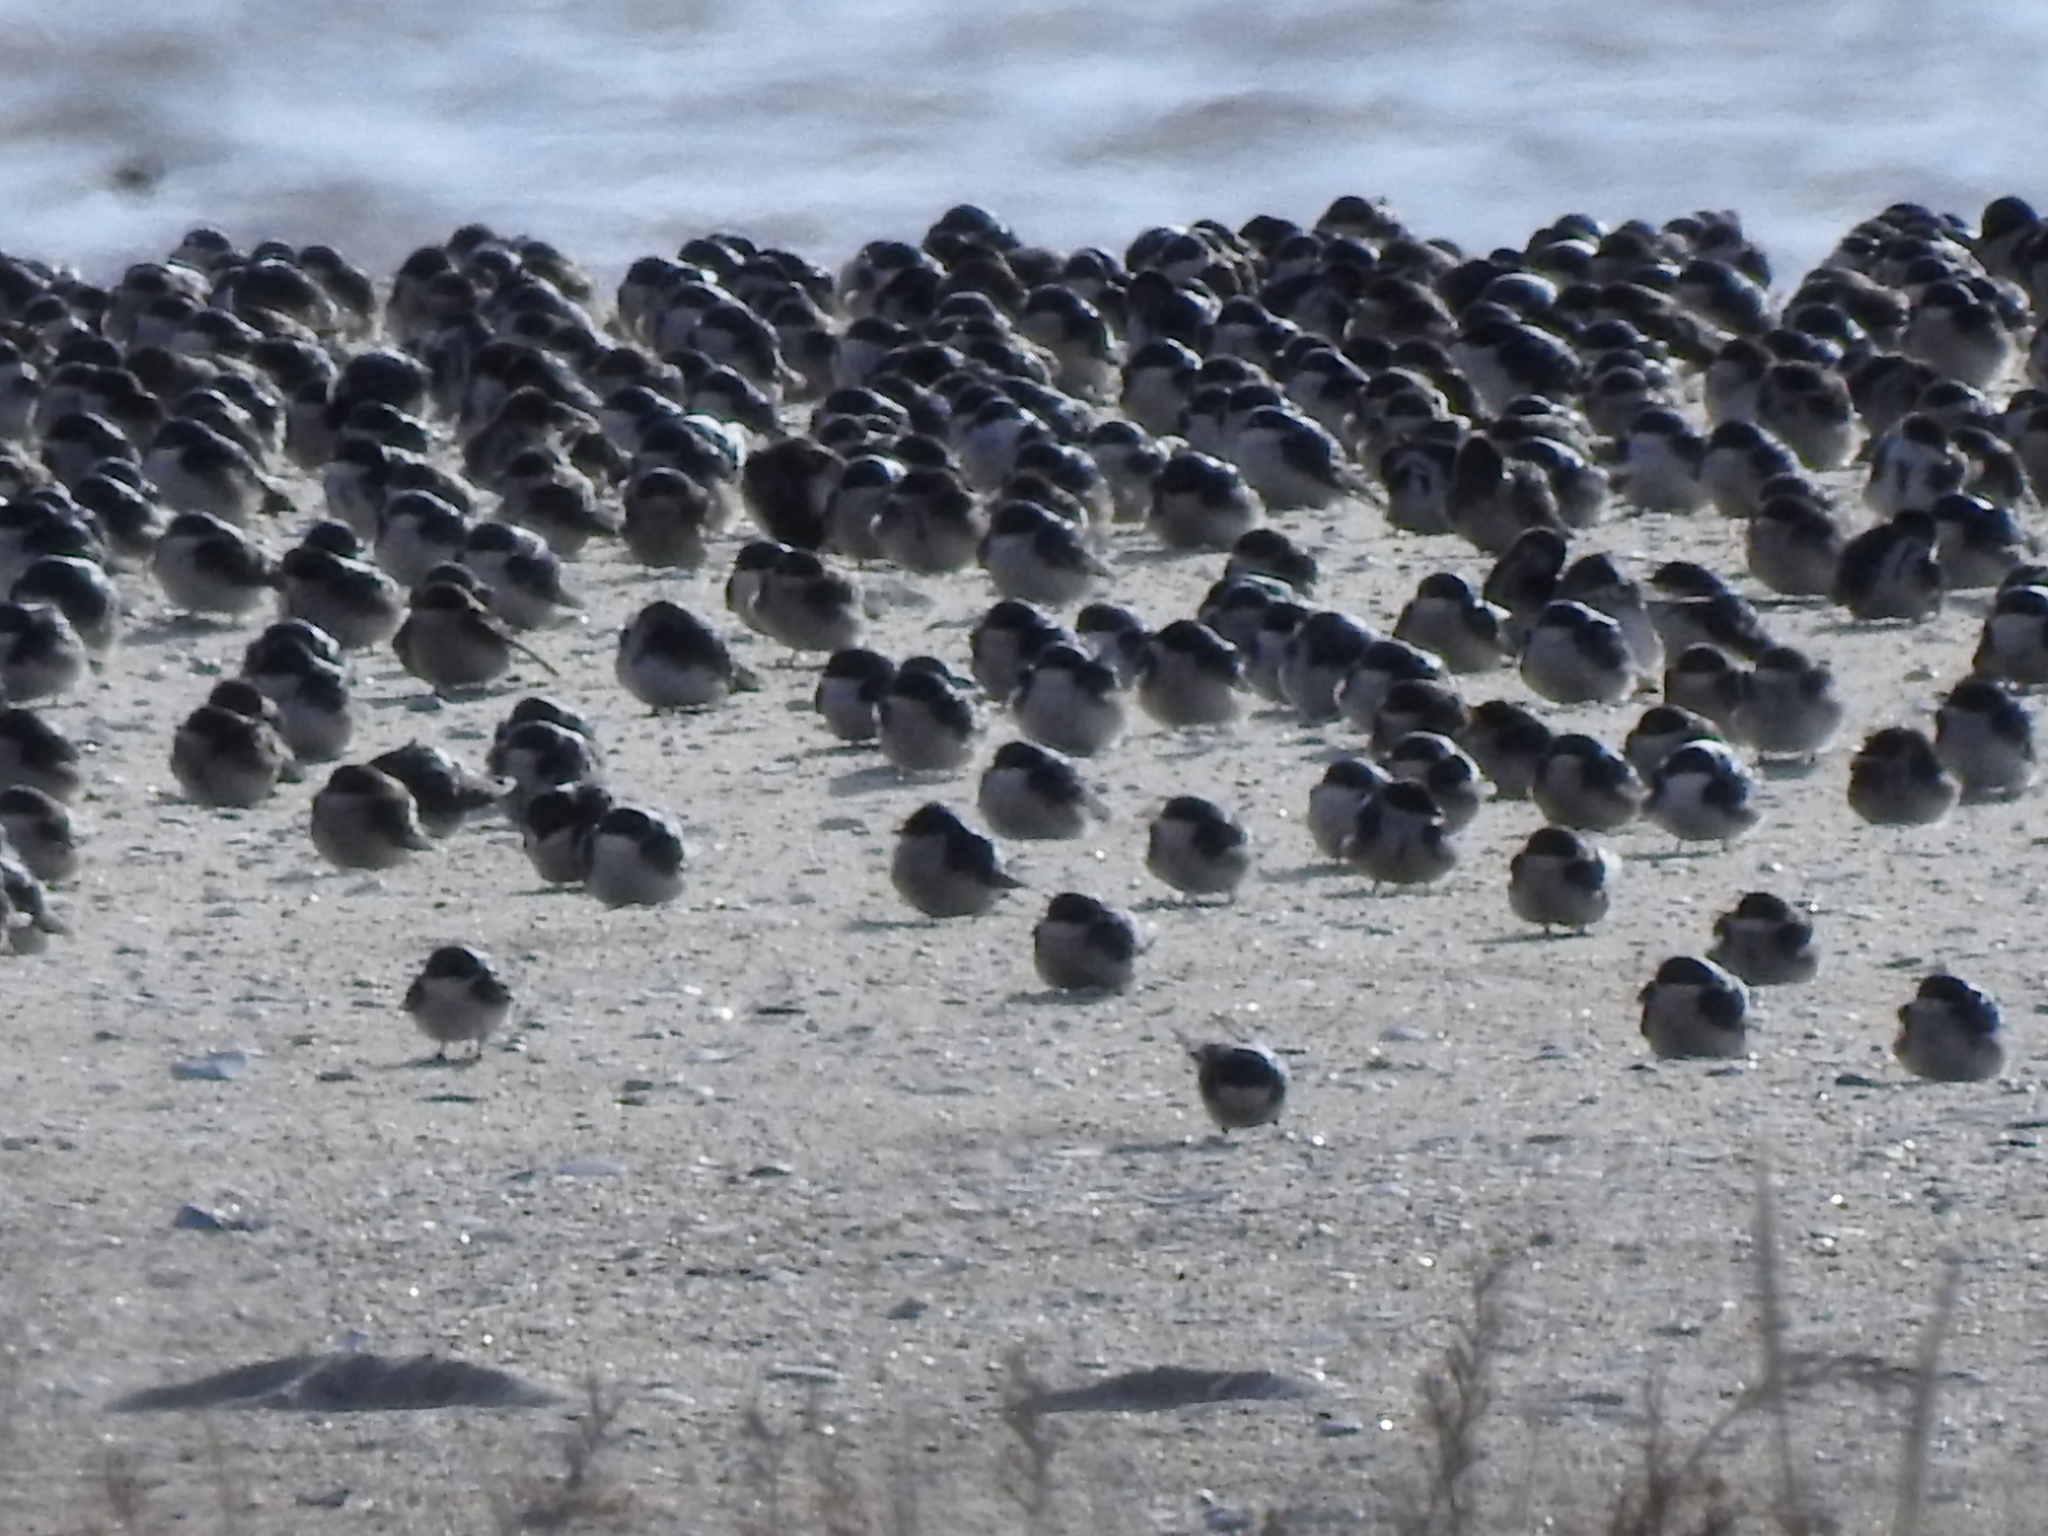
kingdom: Animalia
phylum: Chordata
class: Aves
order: Passeriformes
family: Hirundinidae
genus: Tachycineta
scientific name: Tachycineta bicolor
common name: Tree swallow
